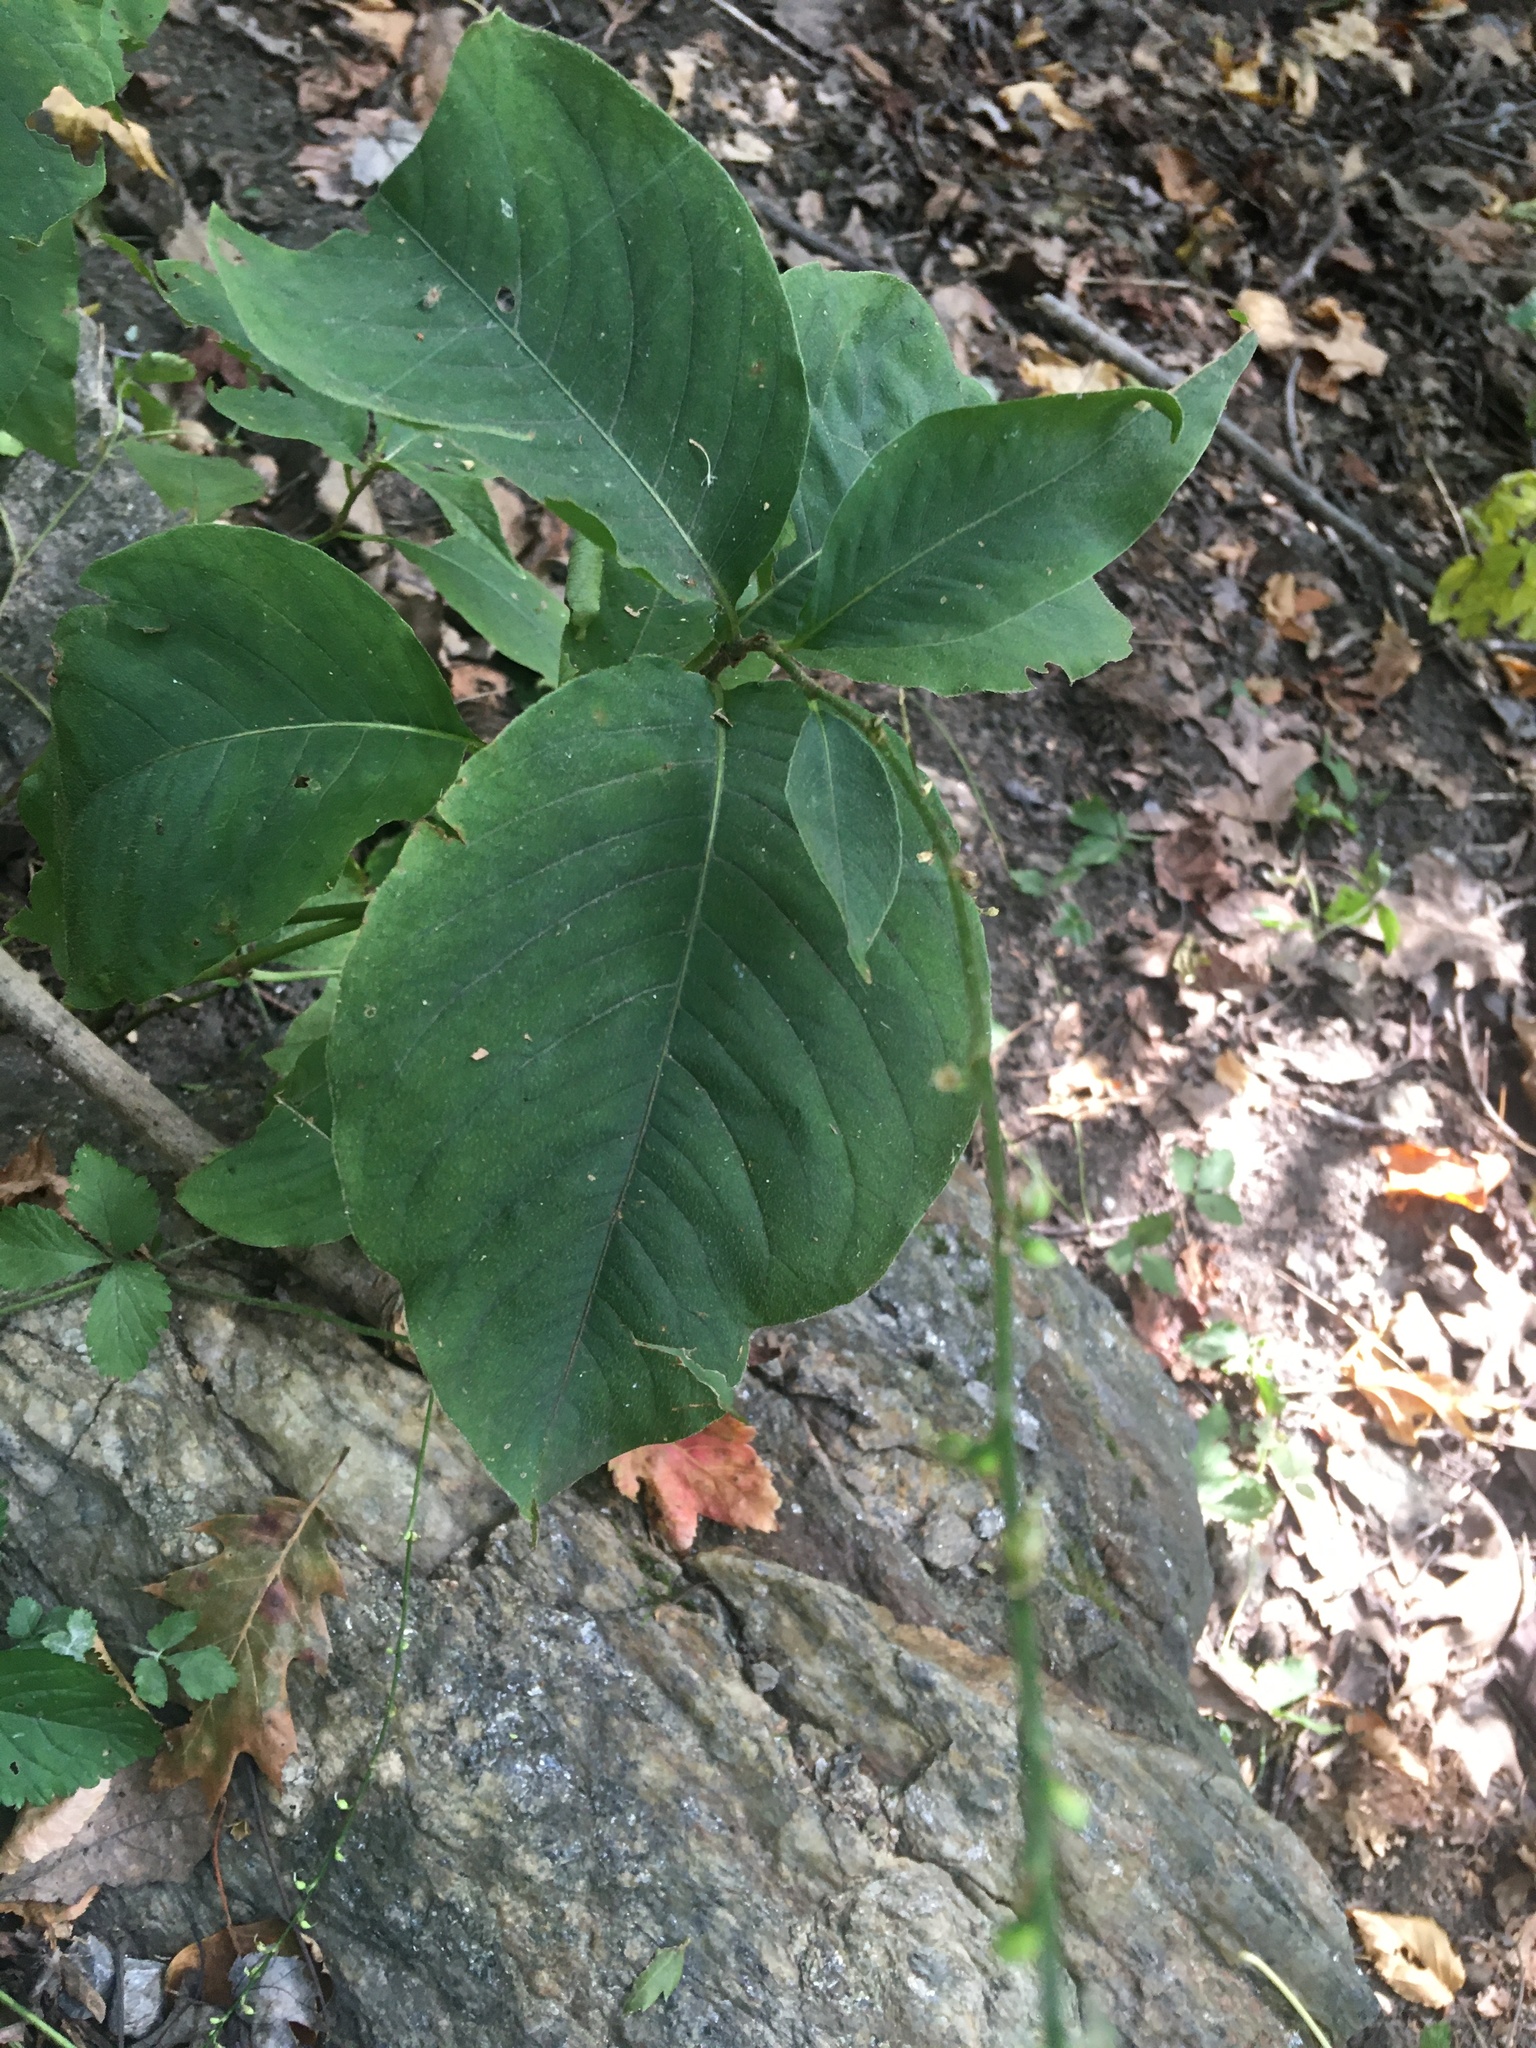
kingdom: Plantae
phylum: Tracheophyta
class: Magnoliopsida
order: Caryophyllales
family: Polygonaceae
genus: Persicaria
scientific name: Persicaria virginiana
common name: Jumpseed
